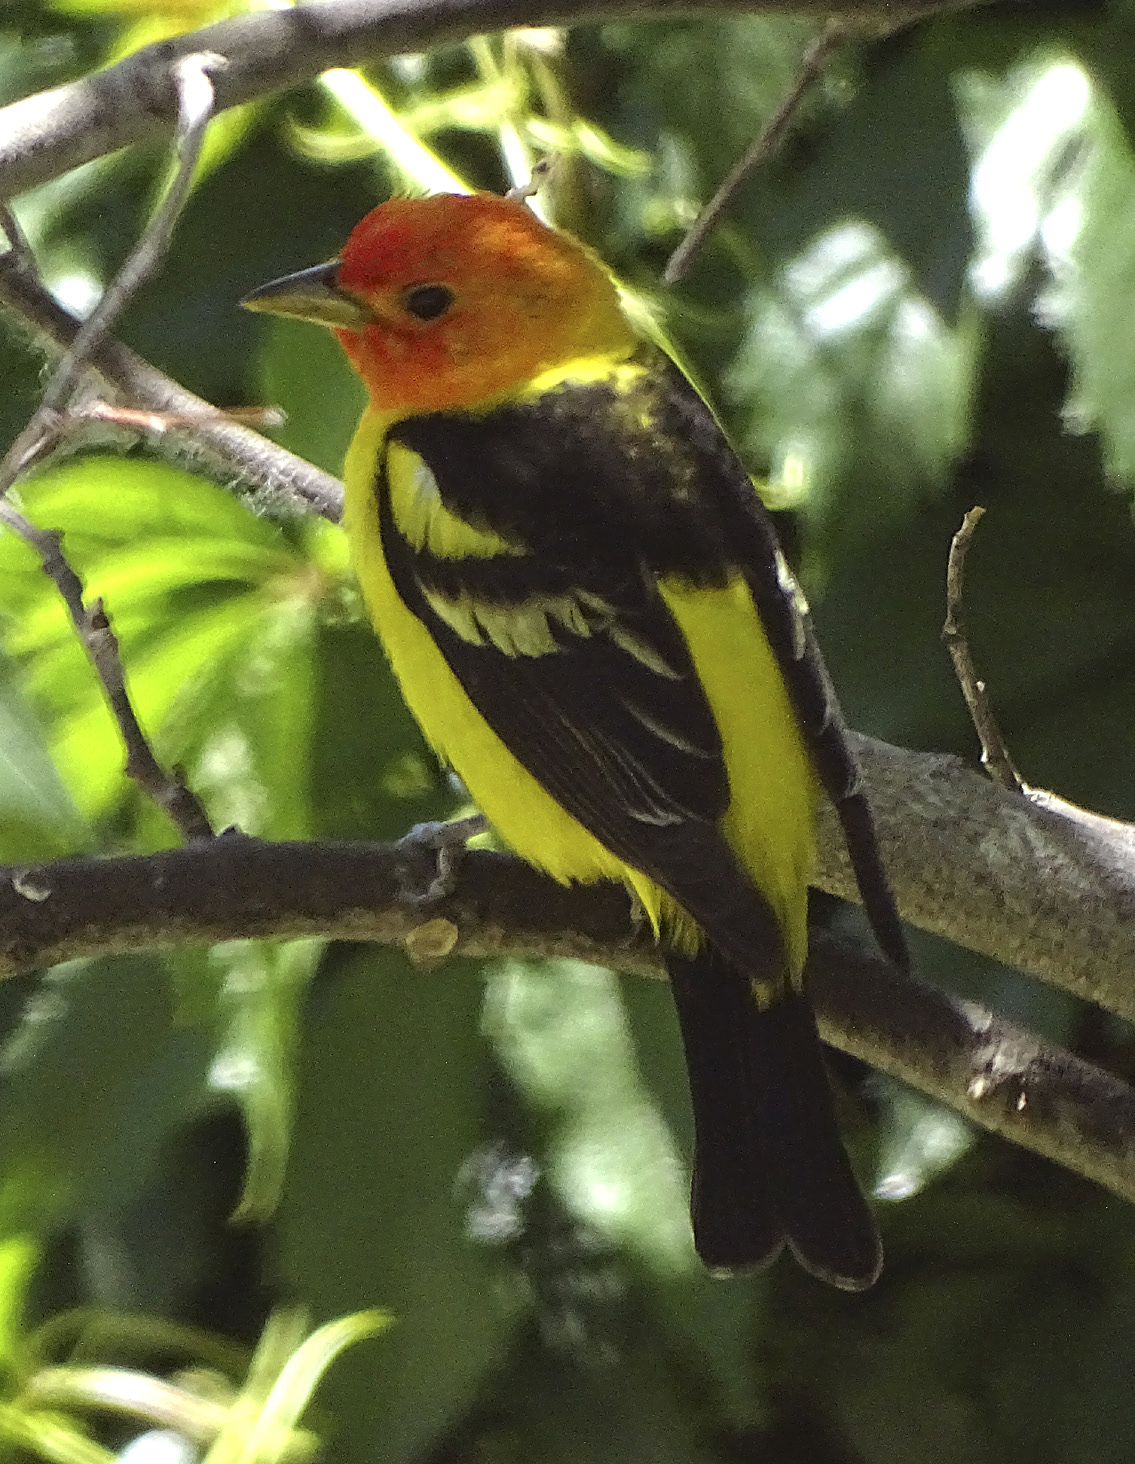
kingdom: Animalia
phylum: Chordata
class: Aves
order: Passeriformes
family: Cardinalidae
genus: Piranga
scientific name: Piranga ludoviciana
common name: Western tanager
